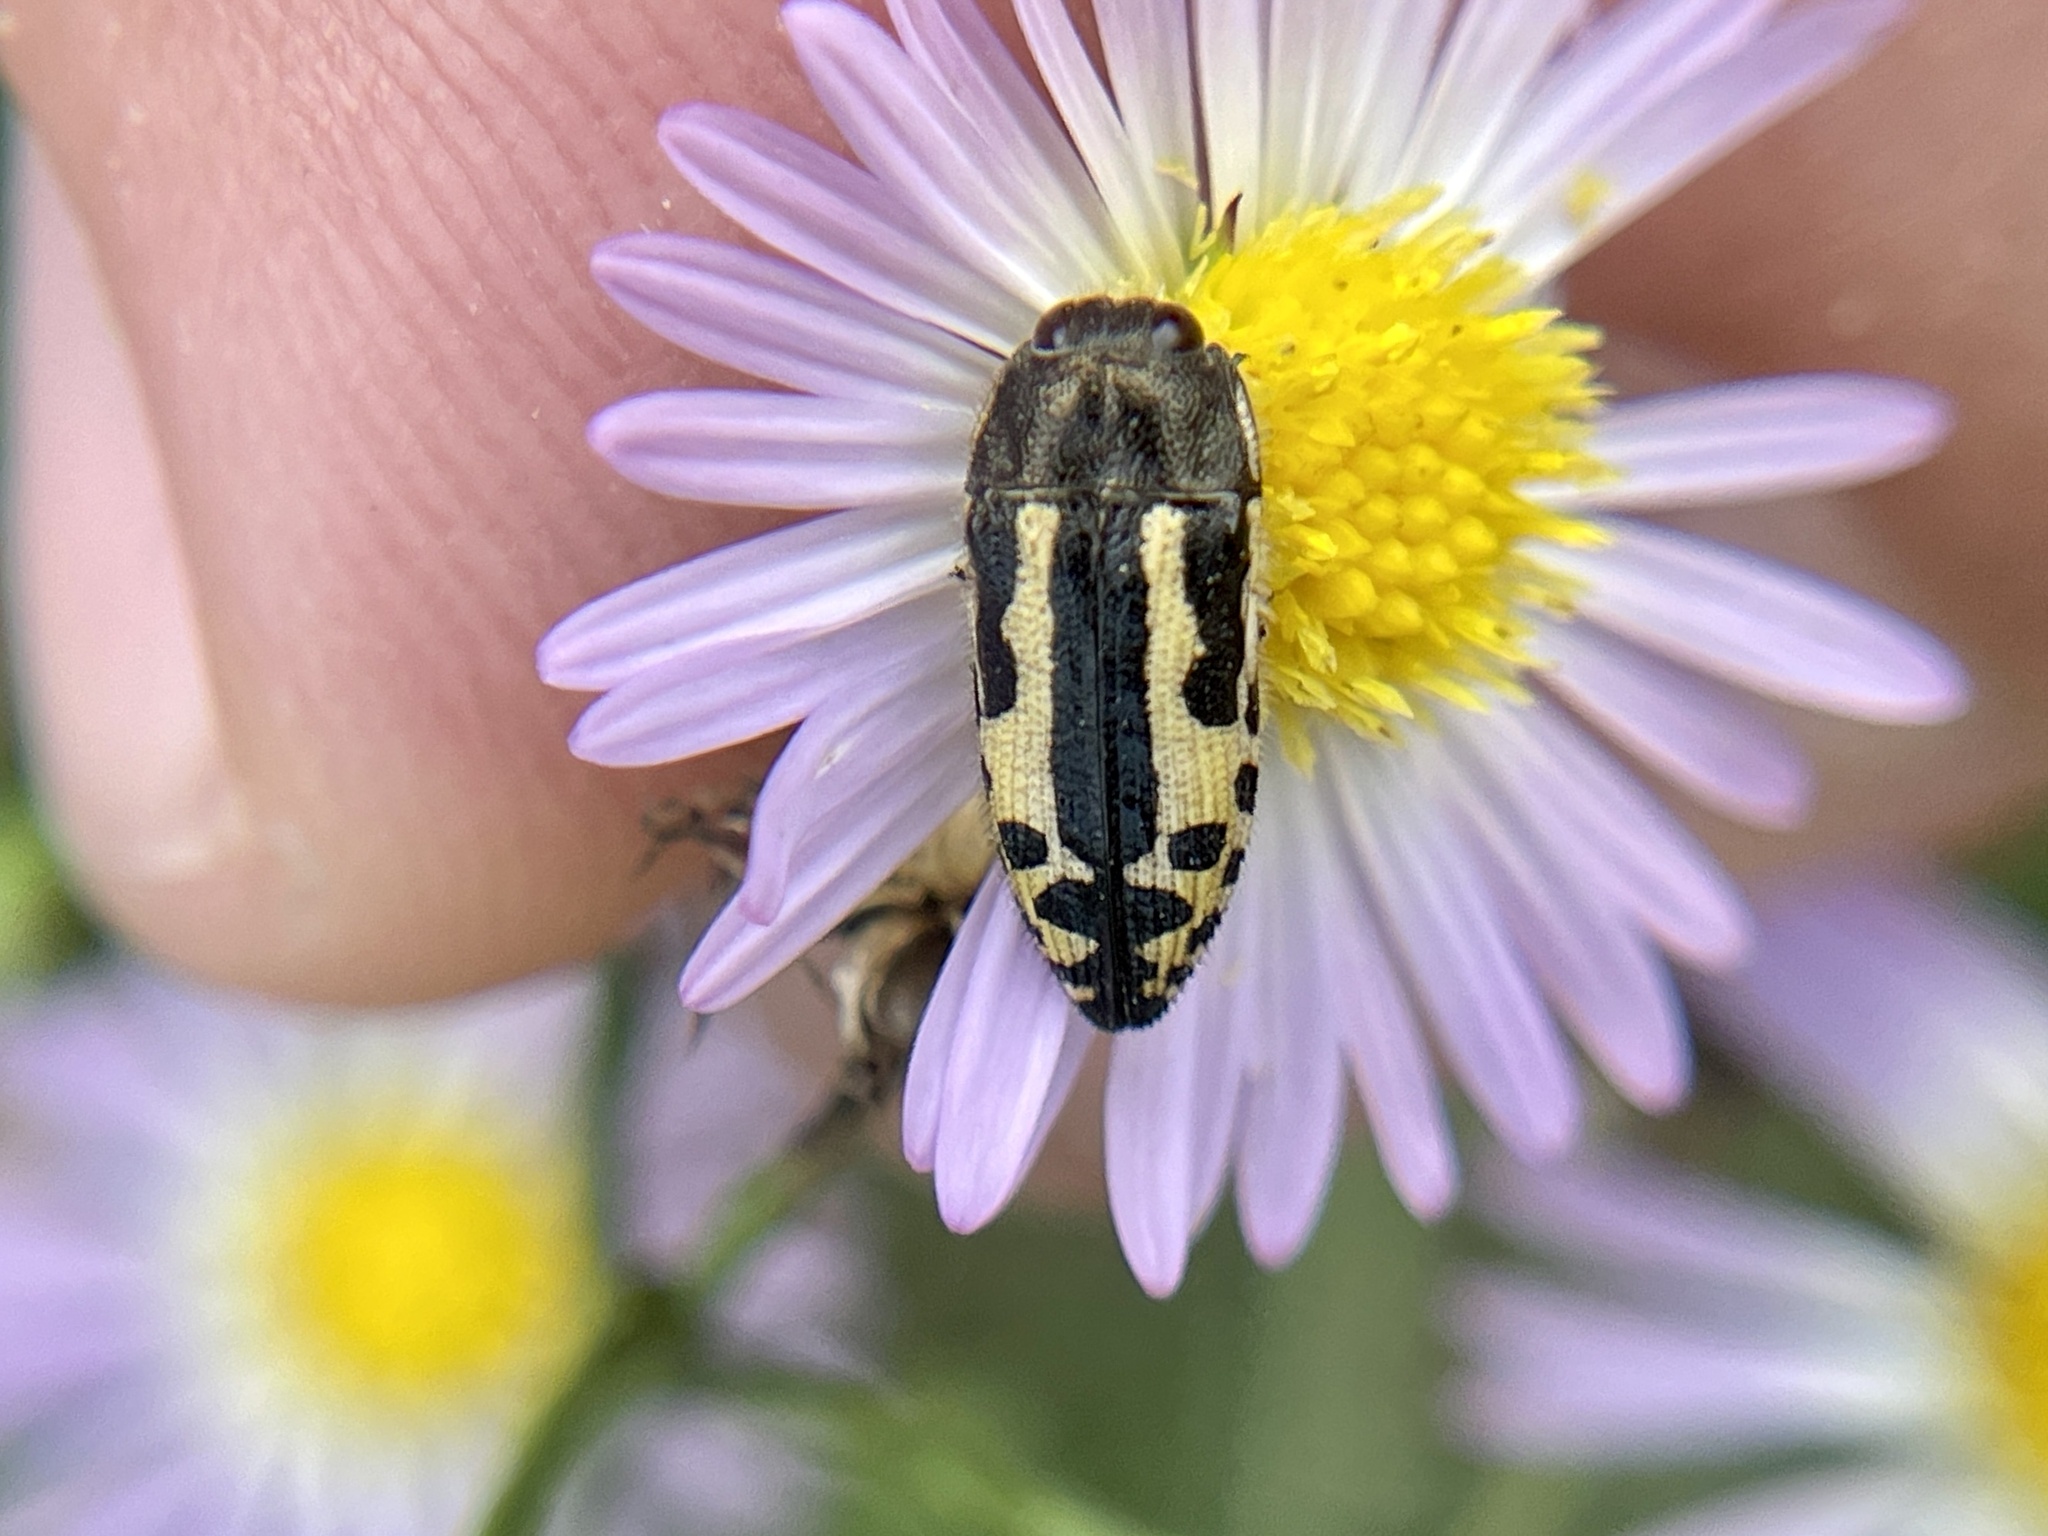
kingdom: Animalia
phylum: Arthropoda
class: Insecta
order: Coleoptera
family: Buprestidae
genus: Acmaeodera
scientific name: Acmaeodera scalaris
